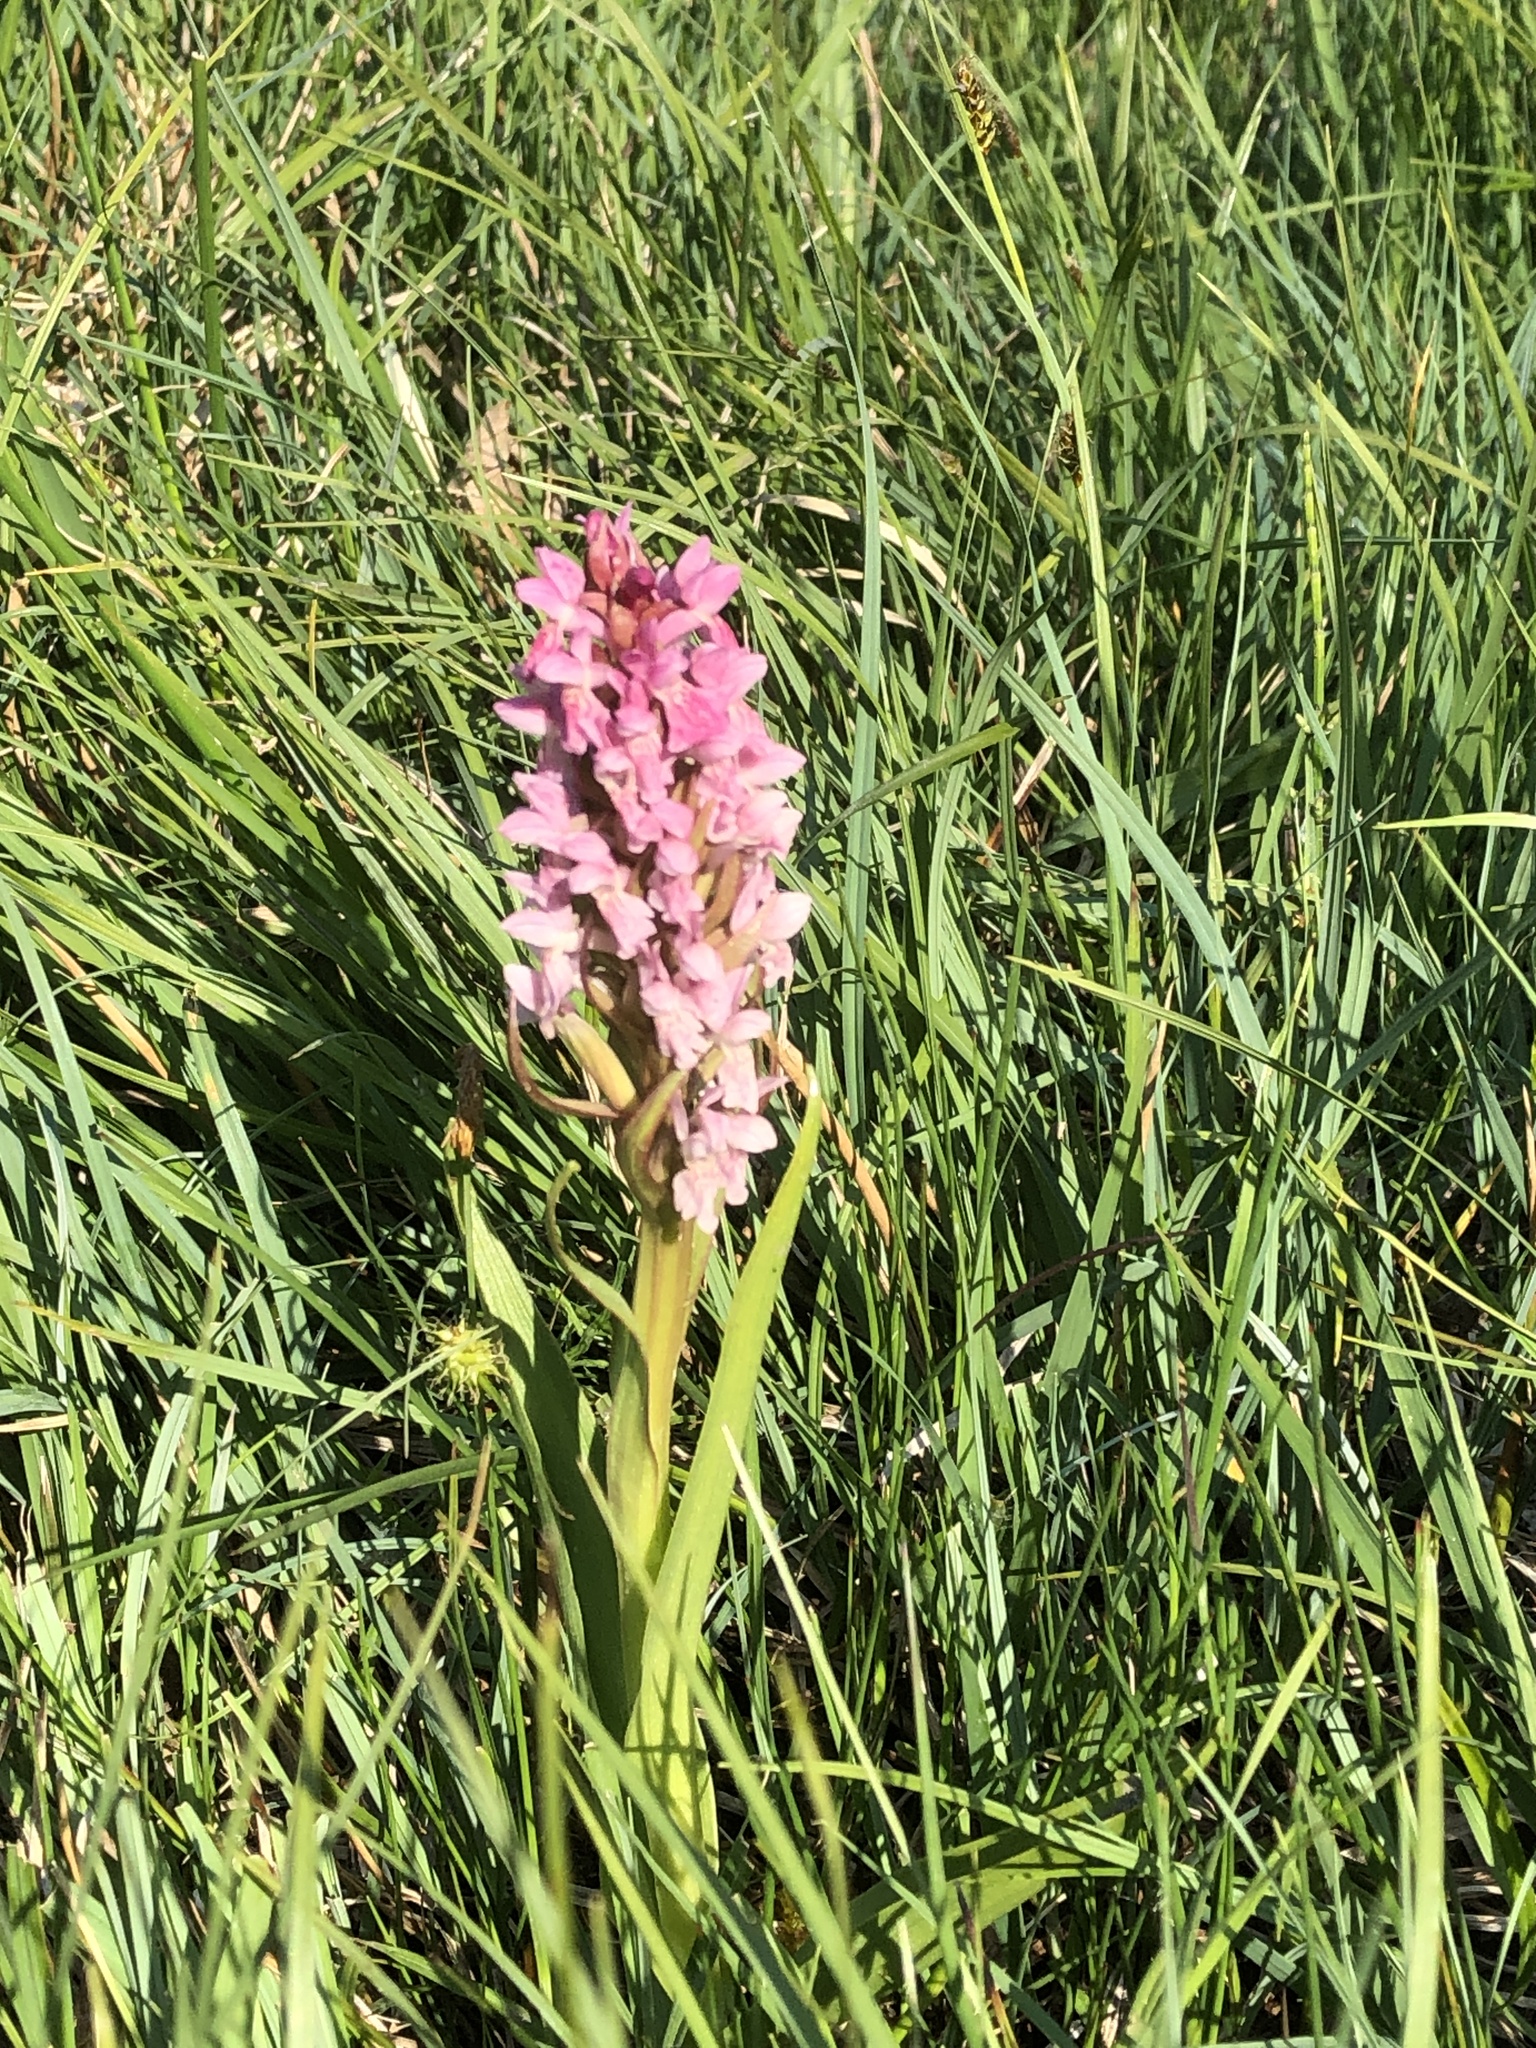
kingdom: Plantae
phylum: Tracheophyta
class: Liliopsida
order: Asparagales
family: Orchidaceae
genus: Dactylorhiza
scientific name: Dactylorhiza incarnata
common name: Early marsh-orchid
